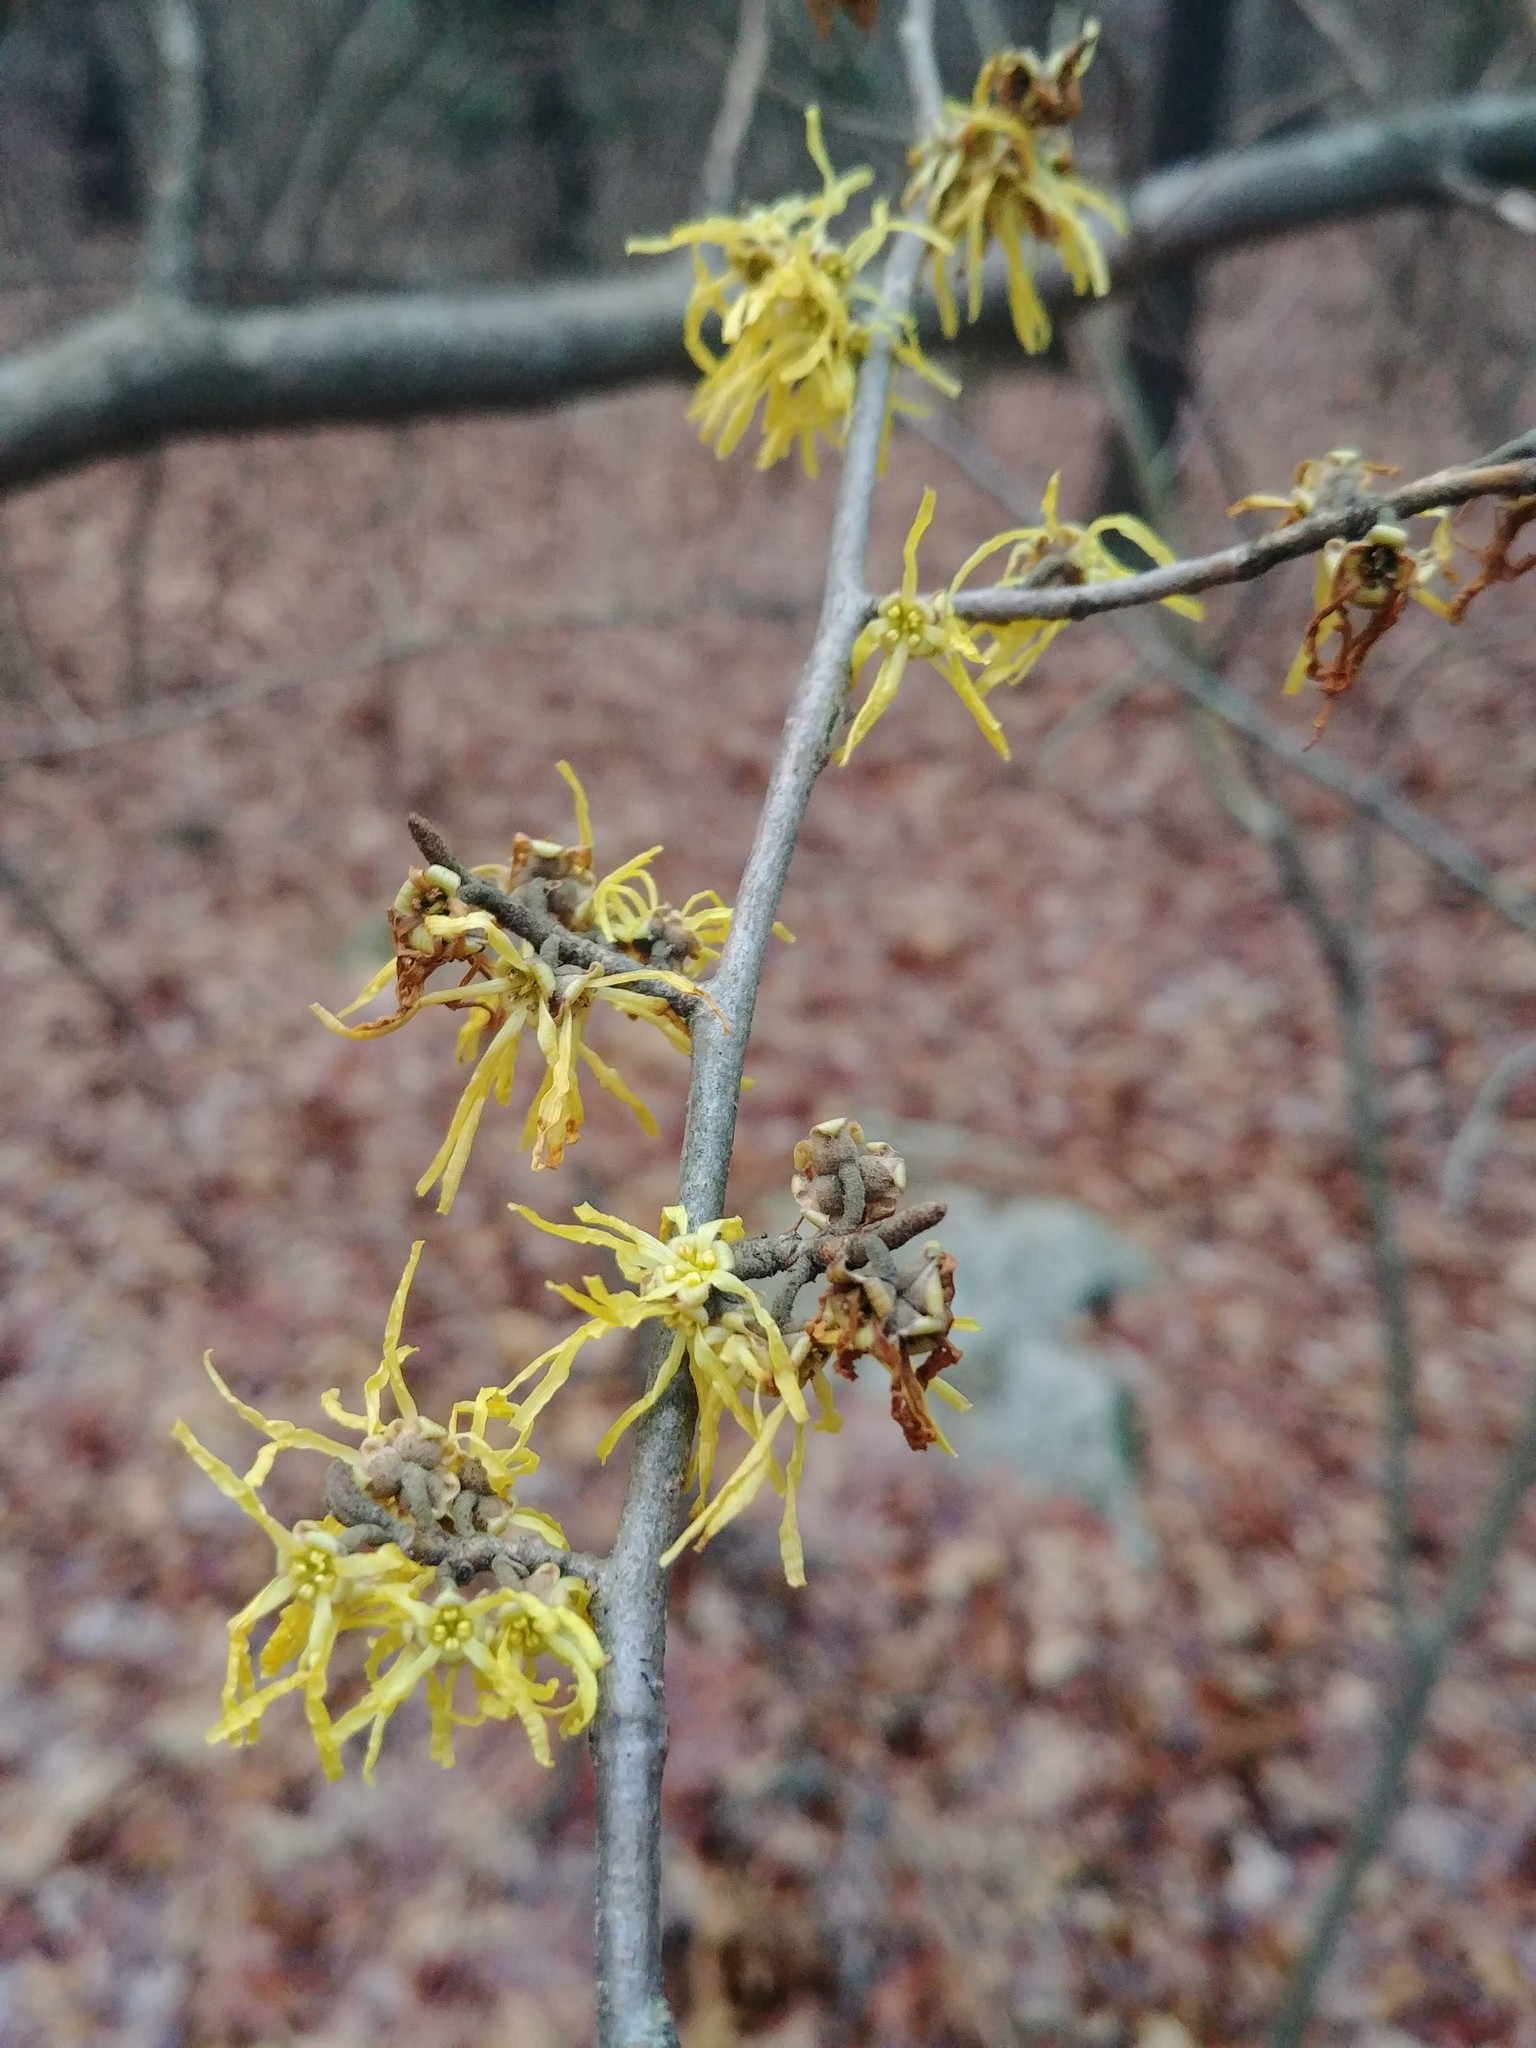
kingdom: Plantae
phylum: Tracheophyta
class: Magnoliopsida
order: Saxifragales
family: Hamamelidaceae
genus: Hamamelis
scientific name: Hamamelis virginiana
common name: Witch-hazel
